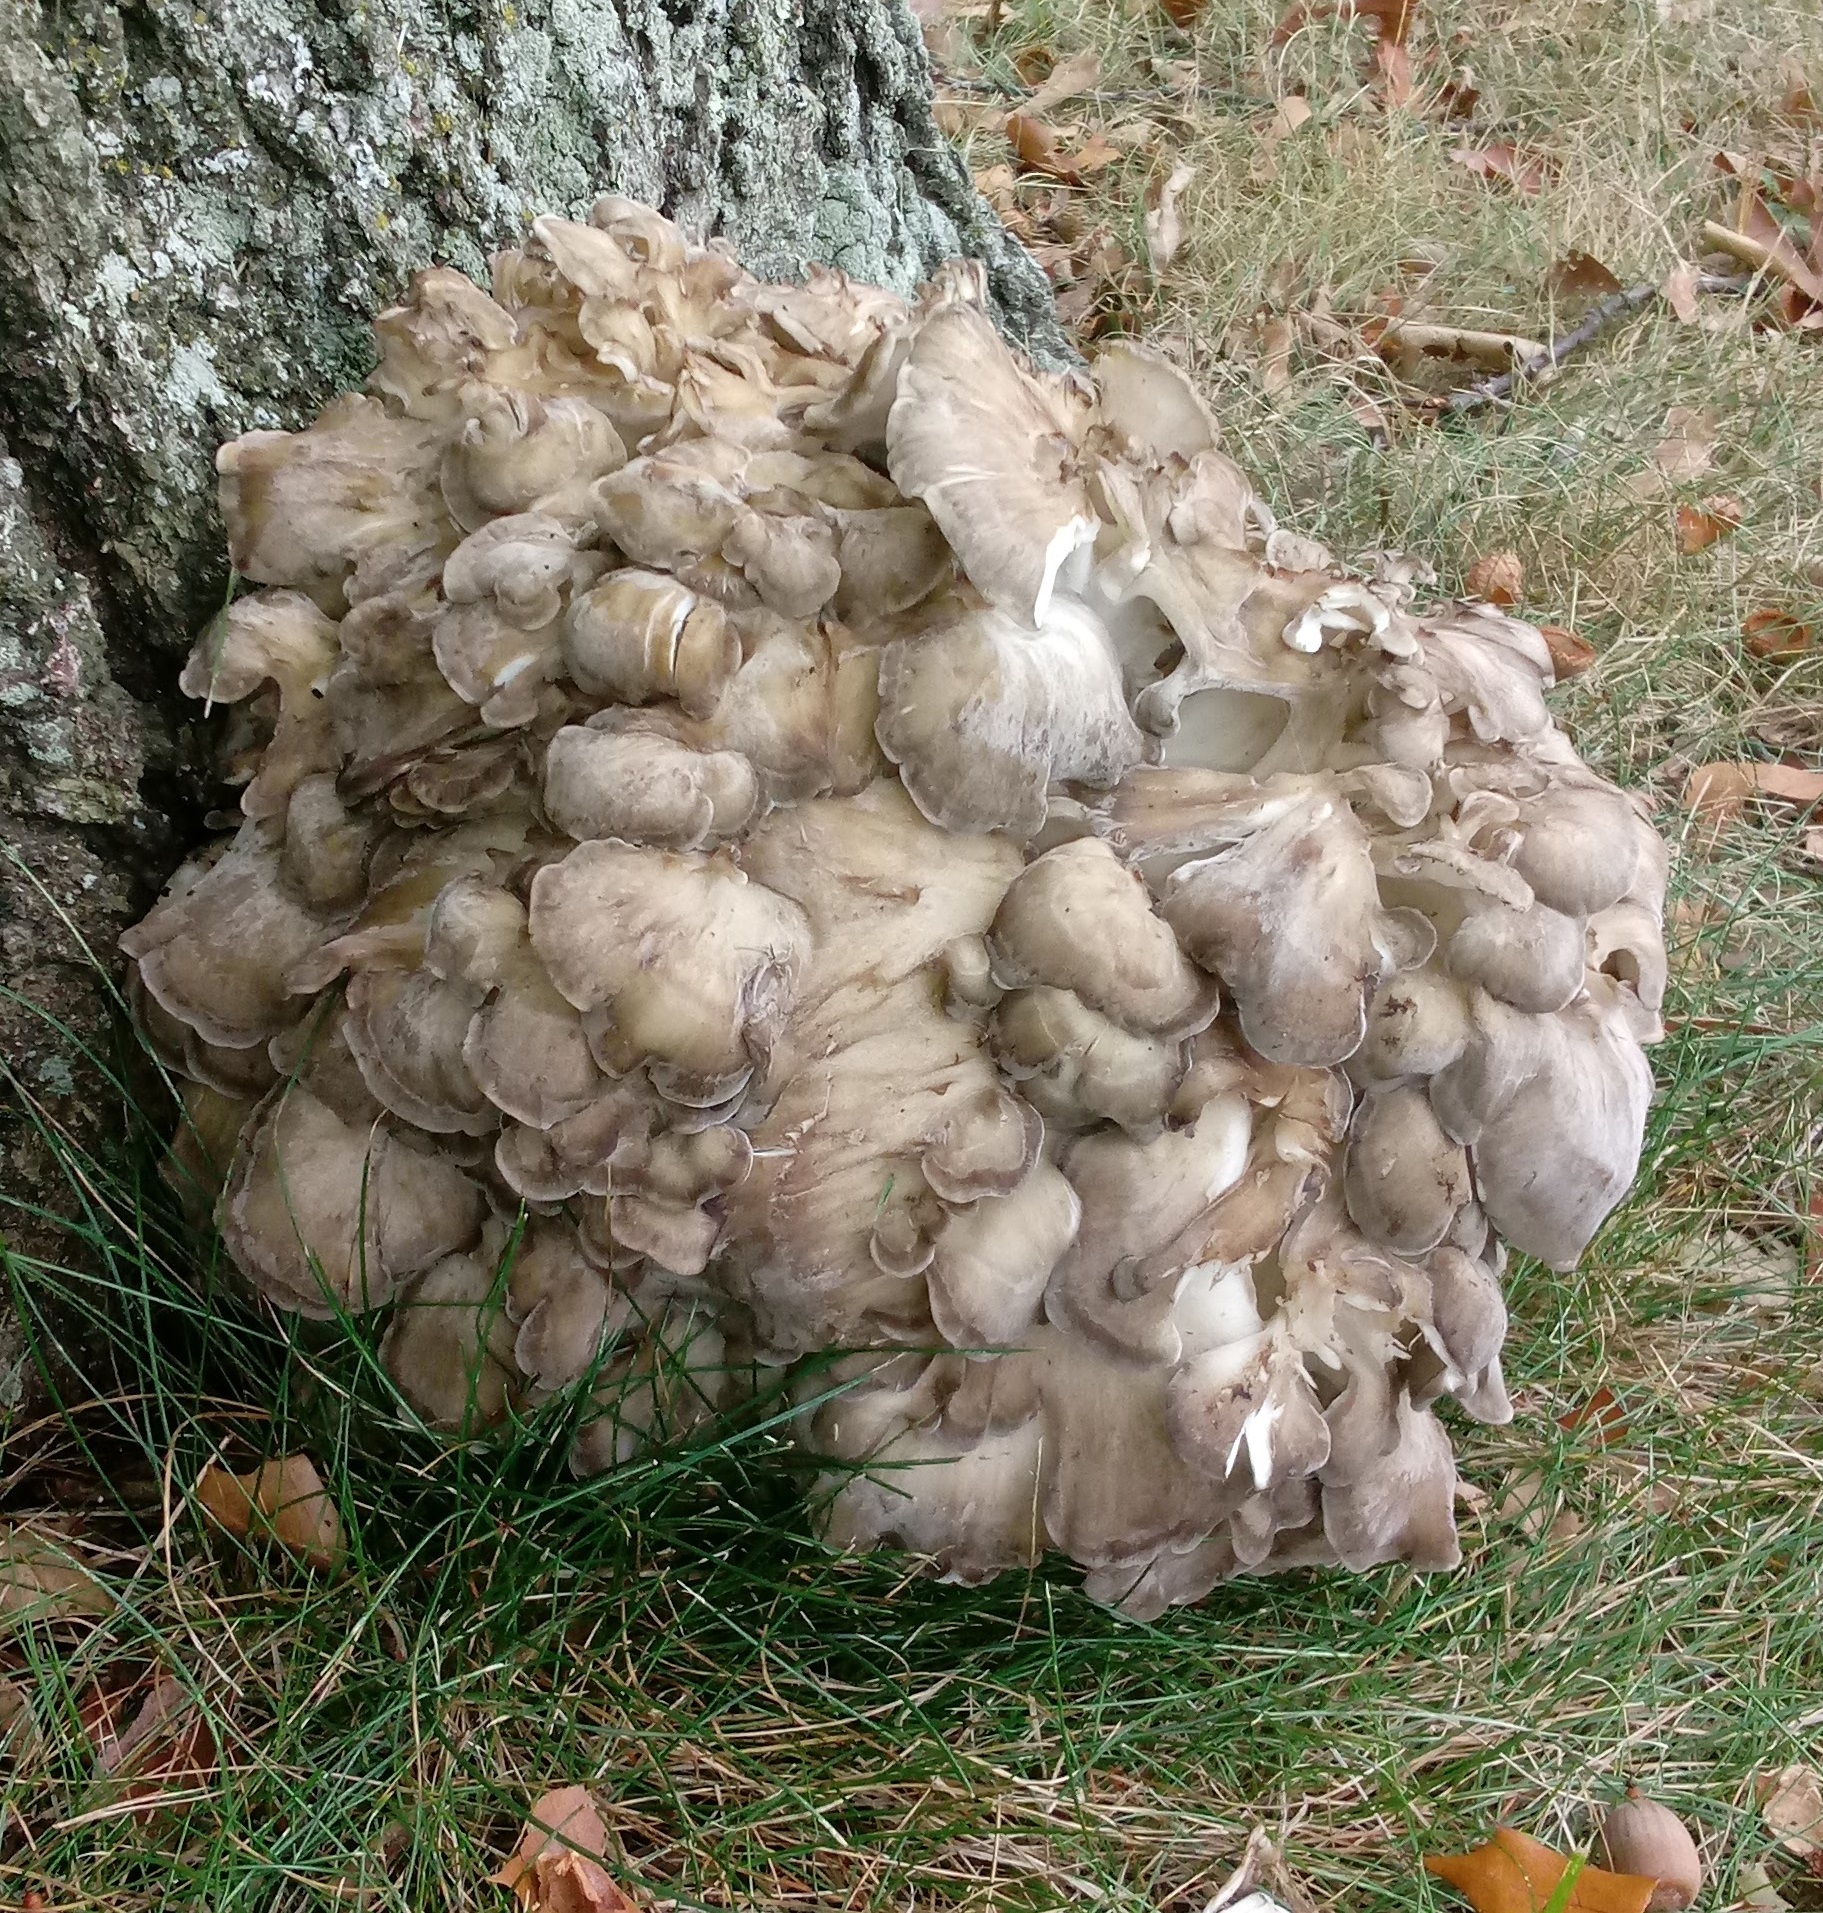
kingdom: Fungi
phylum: Basidiomycota
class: Agaricomycetes
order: Polyporales
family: Grifolaceae
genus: Grifola
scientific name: Grifola frondosa
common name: Hen of the woods
